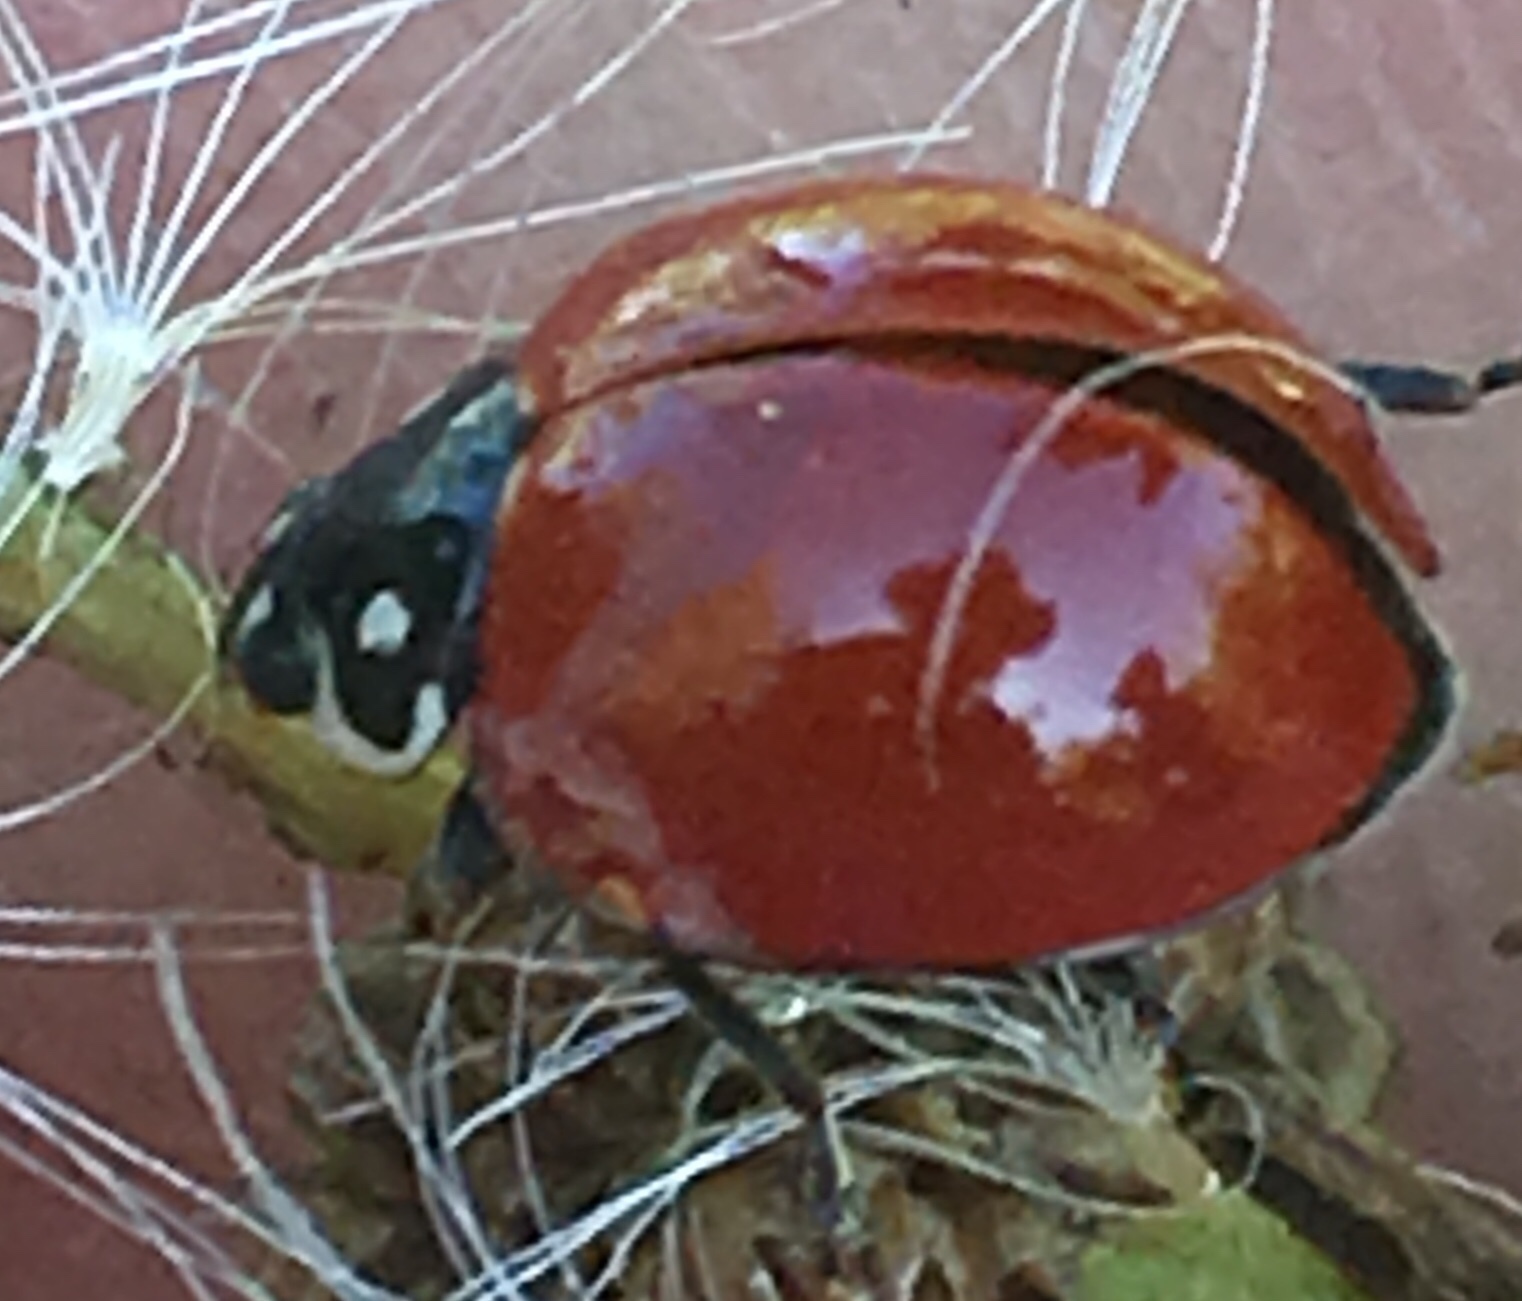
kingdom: Animalia
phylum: Arthropoda
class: Insecta
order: Coleoptera
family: Coccinellidae
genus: Cycloneda
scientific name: Cycloneda sanguinea
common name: Ladybird beetle
